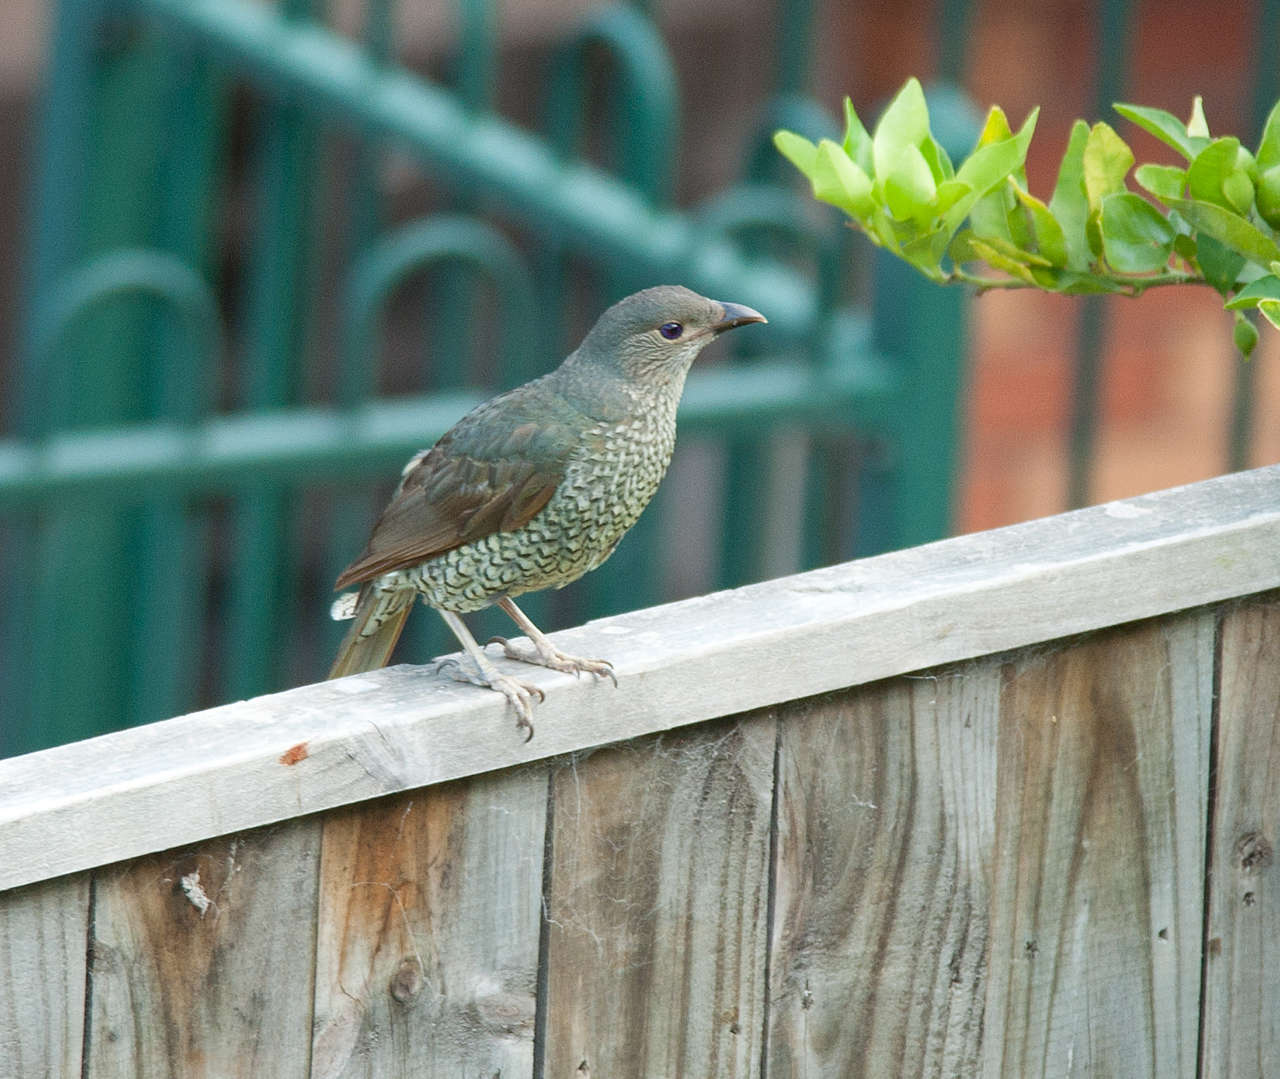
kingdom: Animalia
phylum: Chordata
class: Aves
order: Passeriformes
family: Ptilonorhynchidae
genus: Ptilonorhynchus
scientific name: Ptilonorhynchus violaceus
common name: Satin bowerbird
